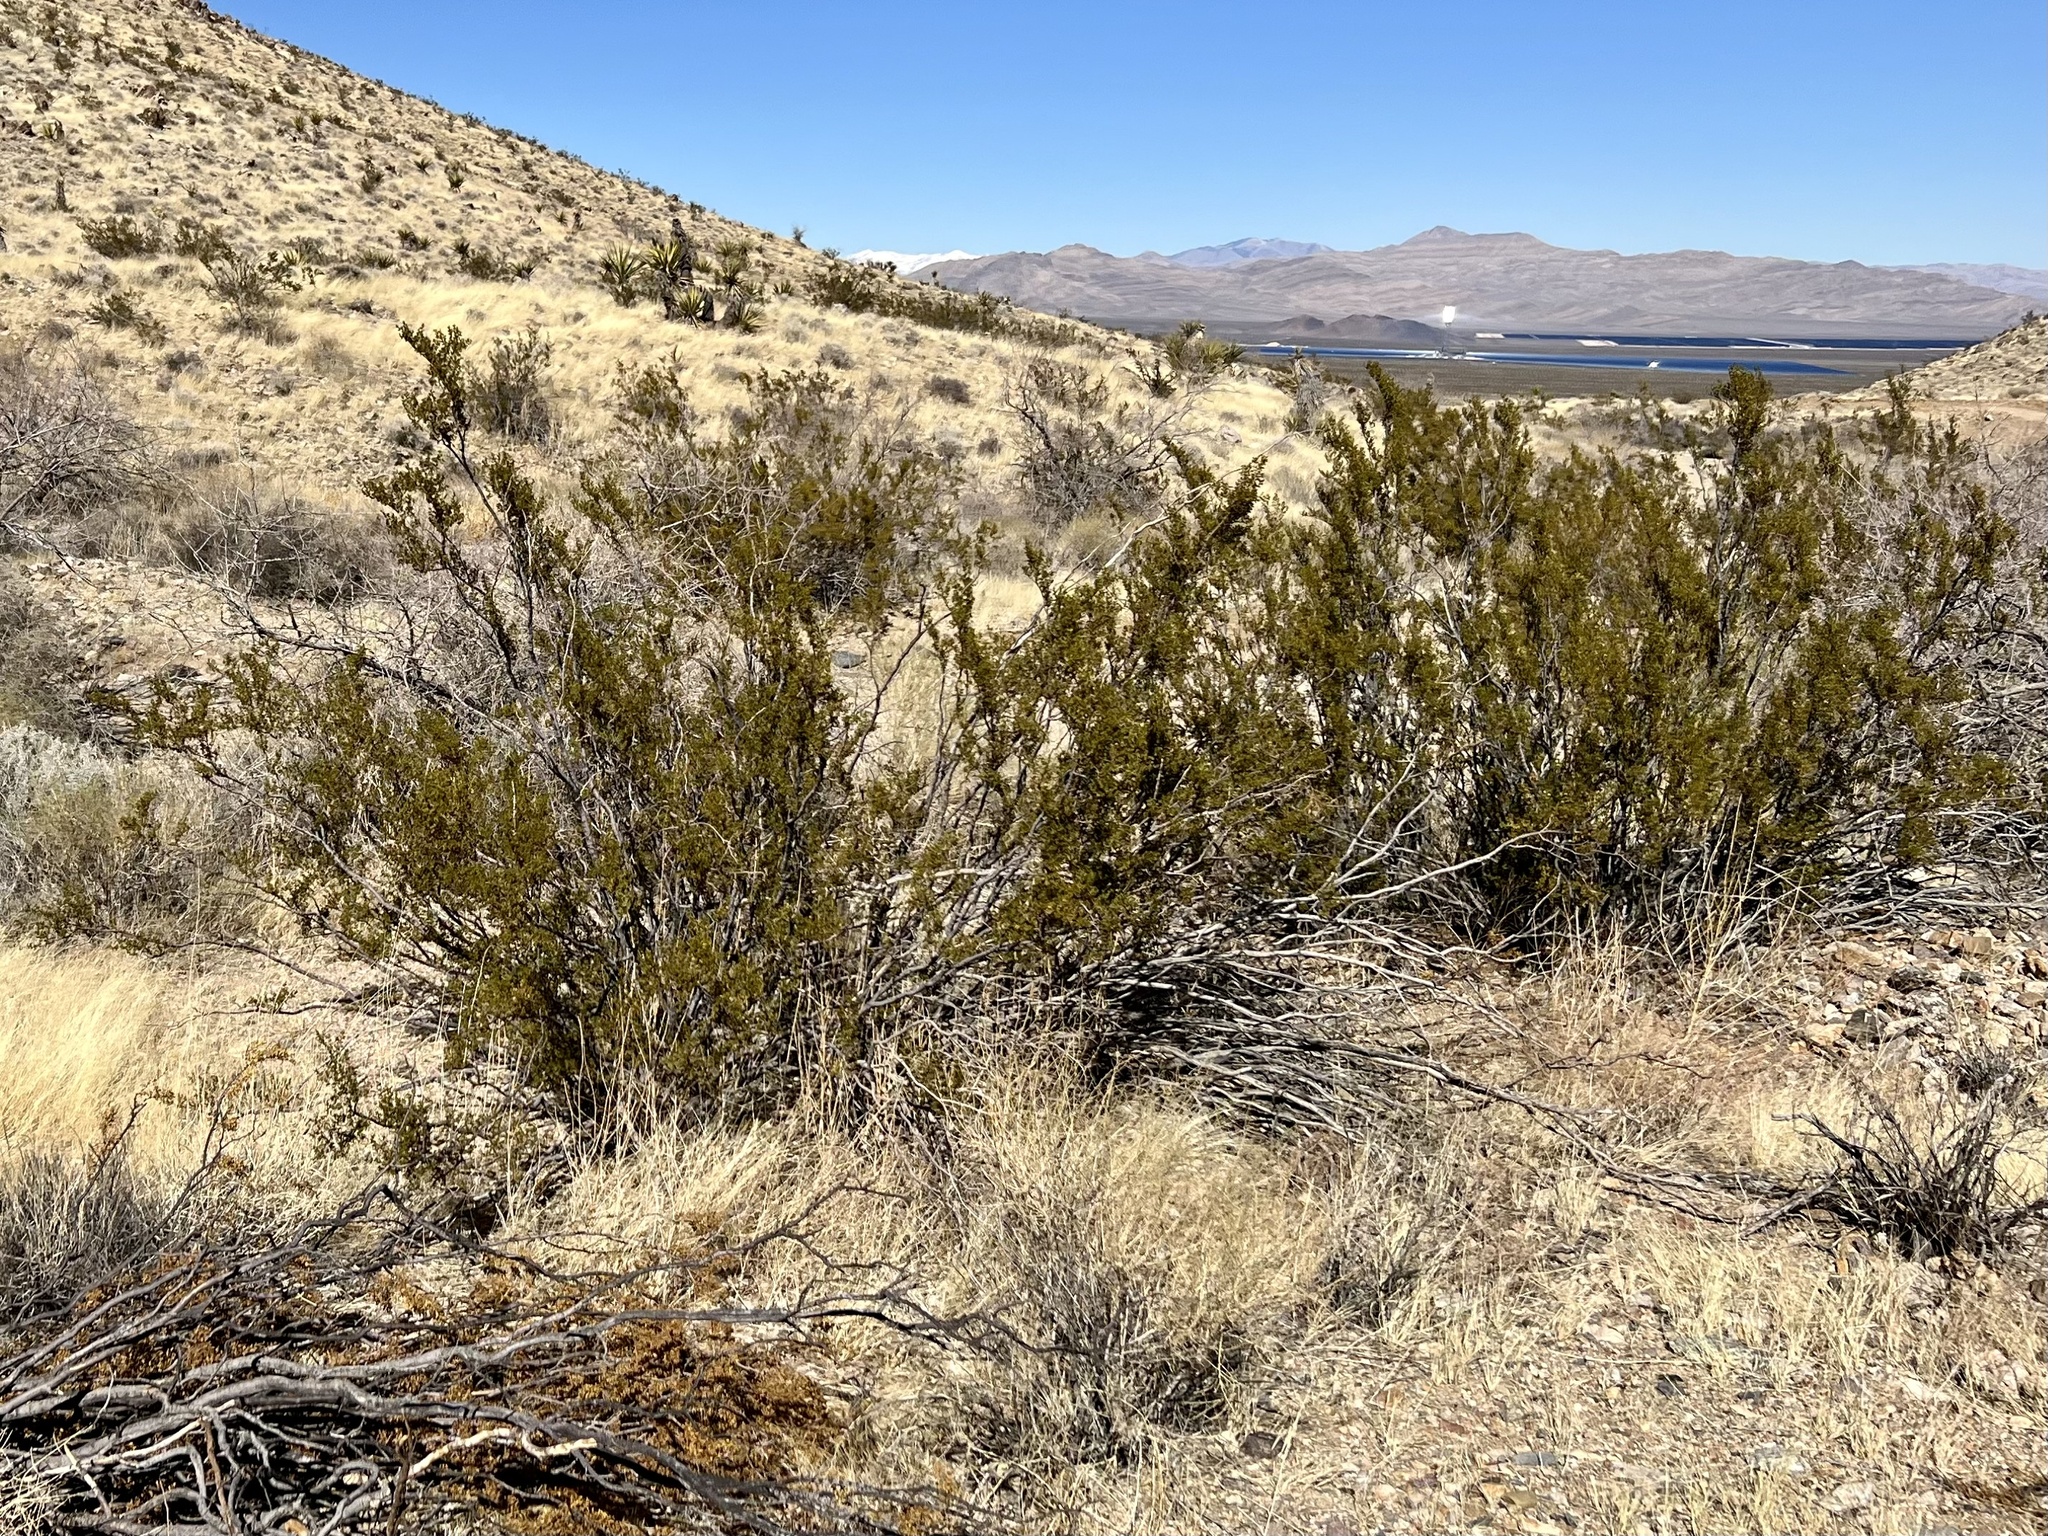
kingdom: Plantae
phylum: Tracheophyta
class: Magnoliopsida
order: Zygophyllales
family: Zygophyllaceae
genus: Larrea
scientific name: Larrea tridentata
